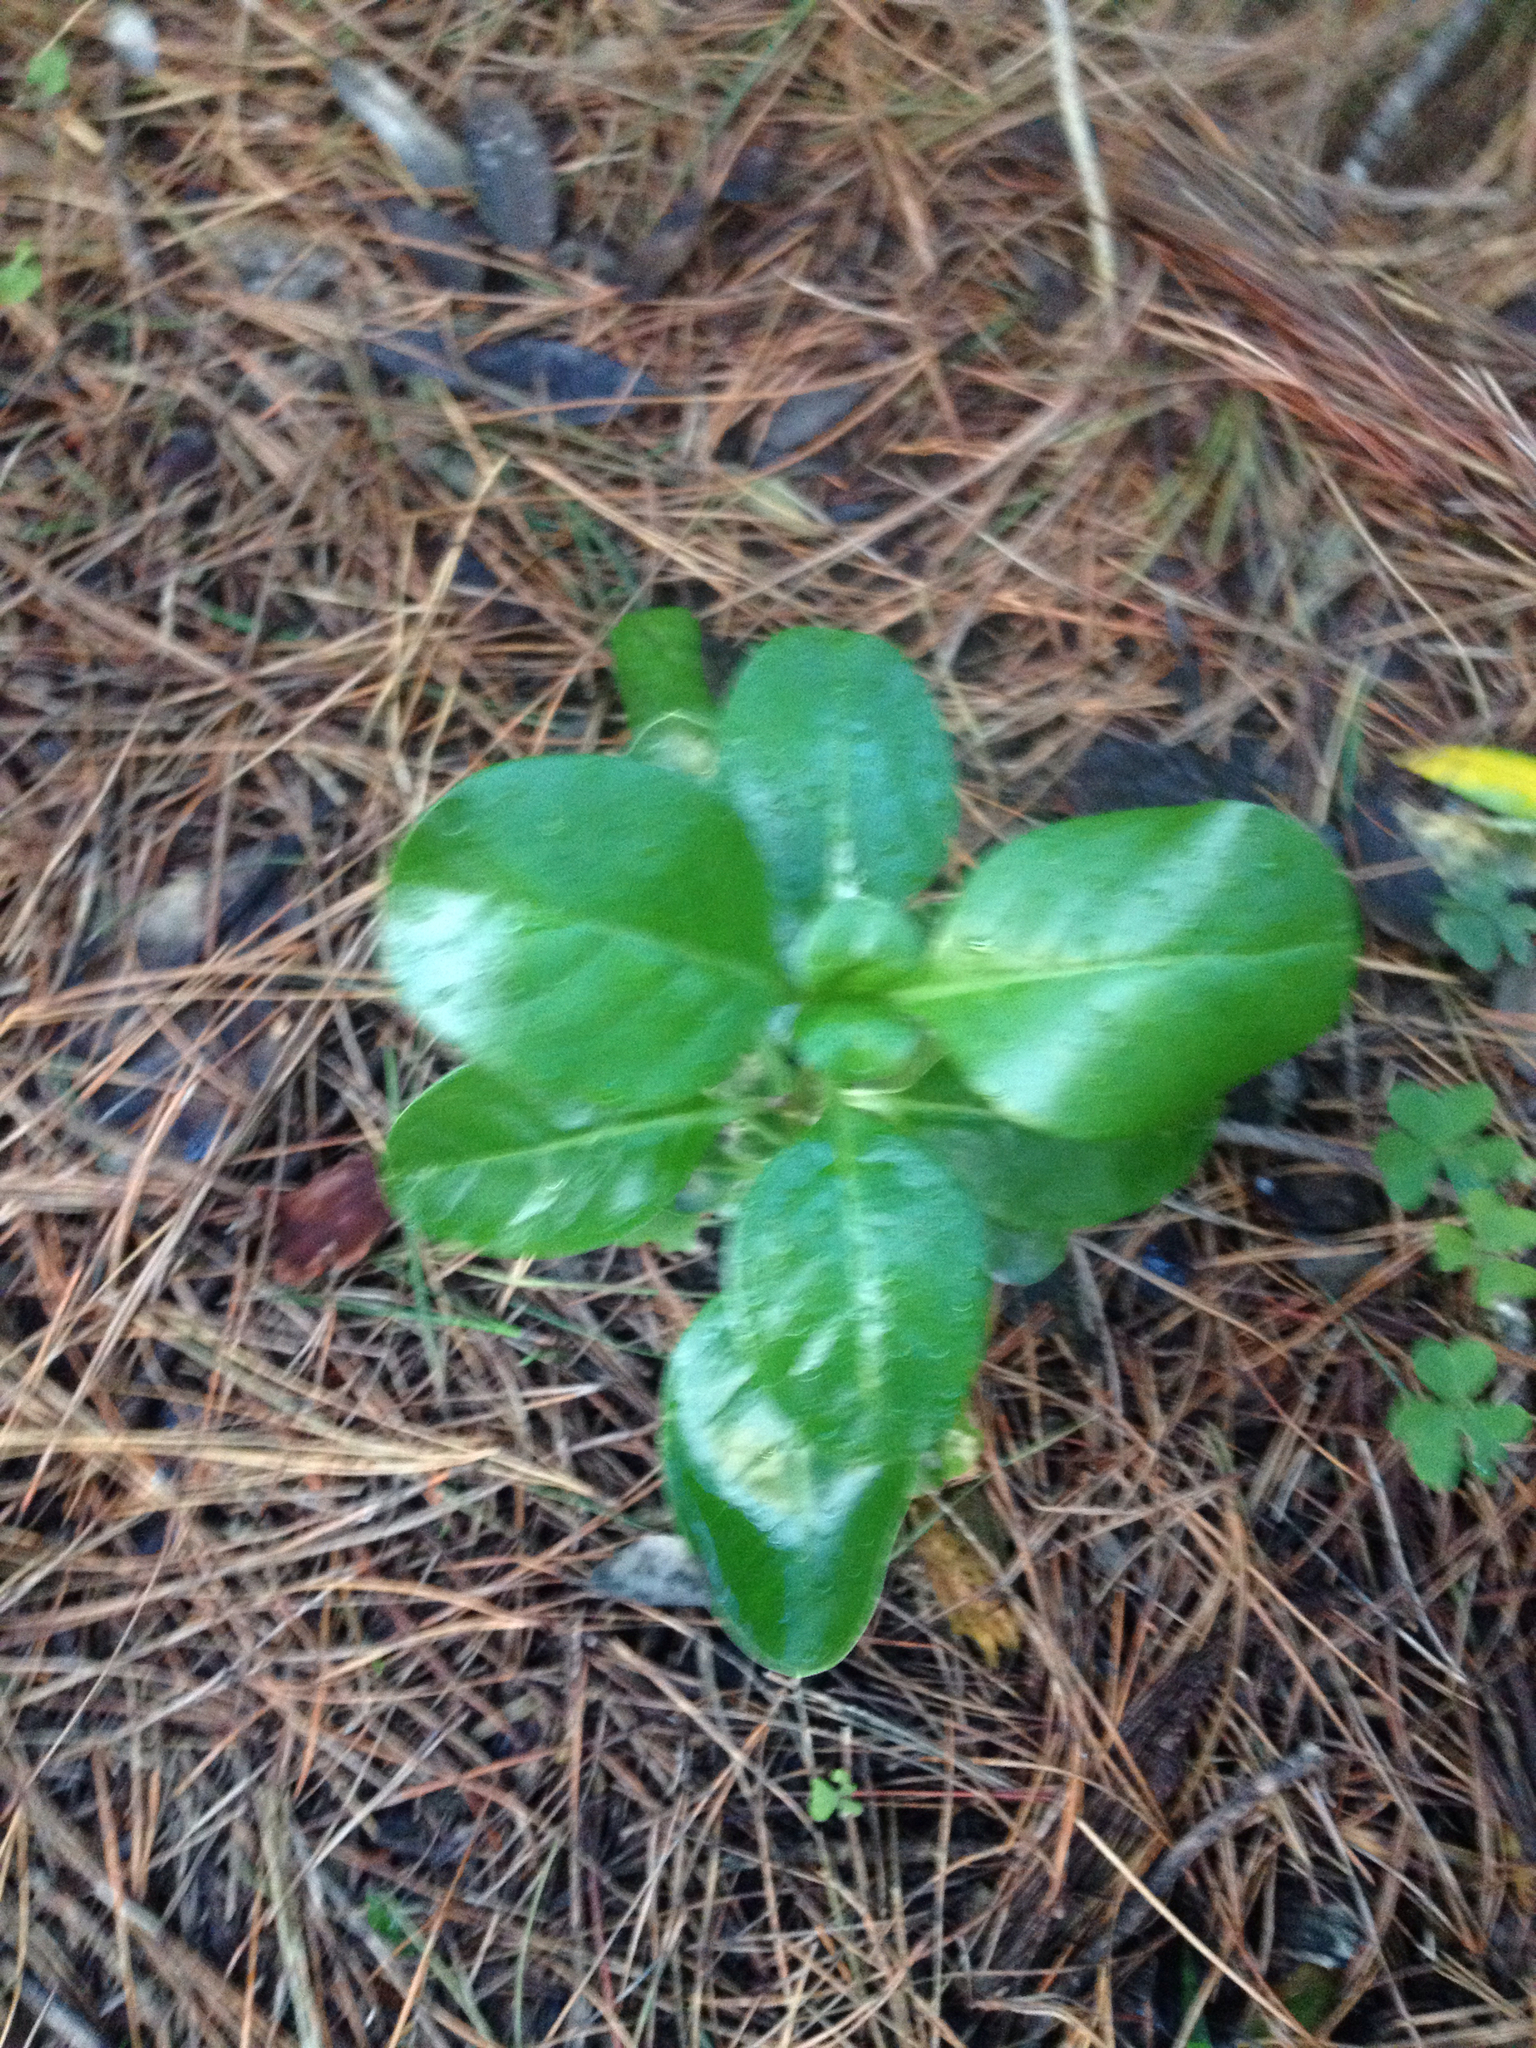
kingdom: Plantae
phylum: Tracheophyta
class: Magnoliopsida
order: Gentianales
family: Rubiaceae
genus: Coprosma
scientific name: Coprosma repens
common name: Tree bedstraw
